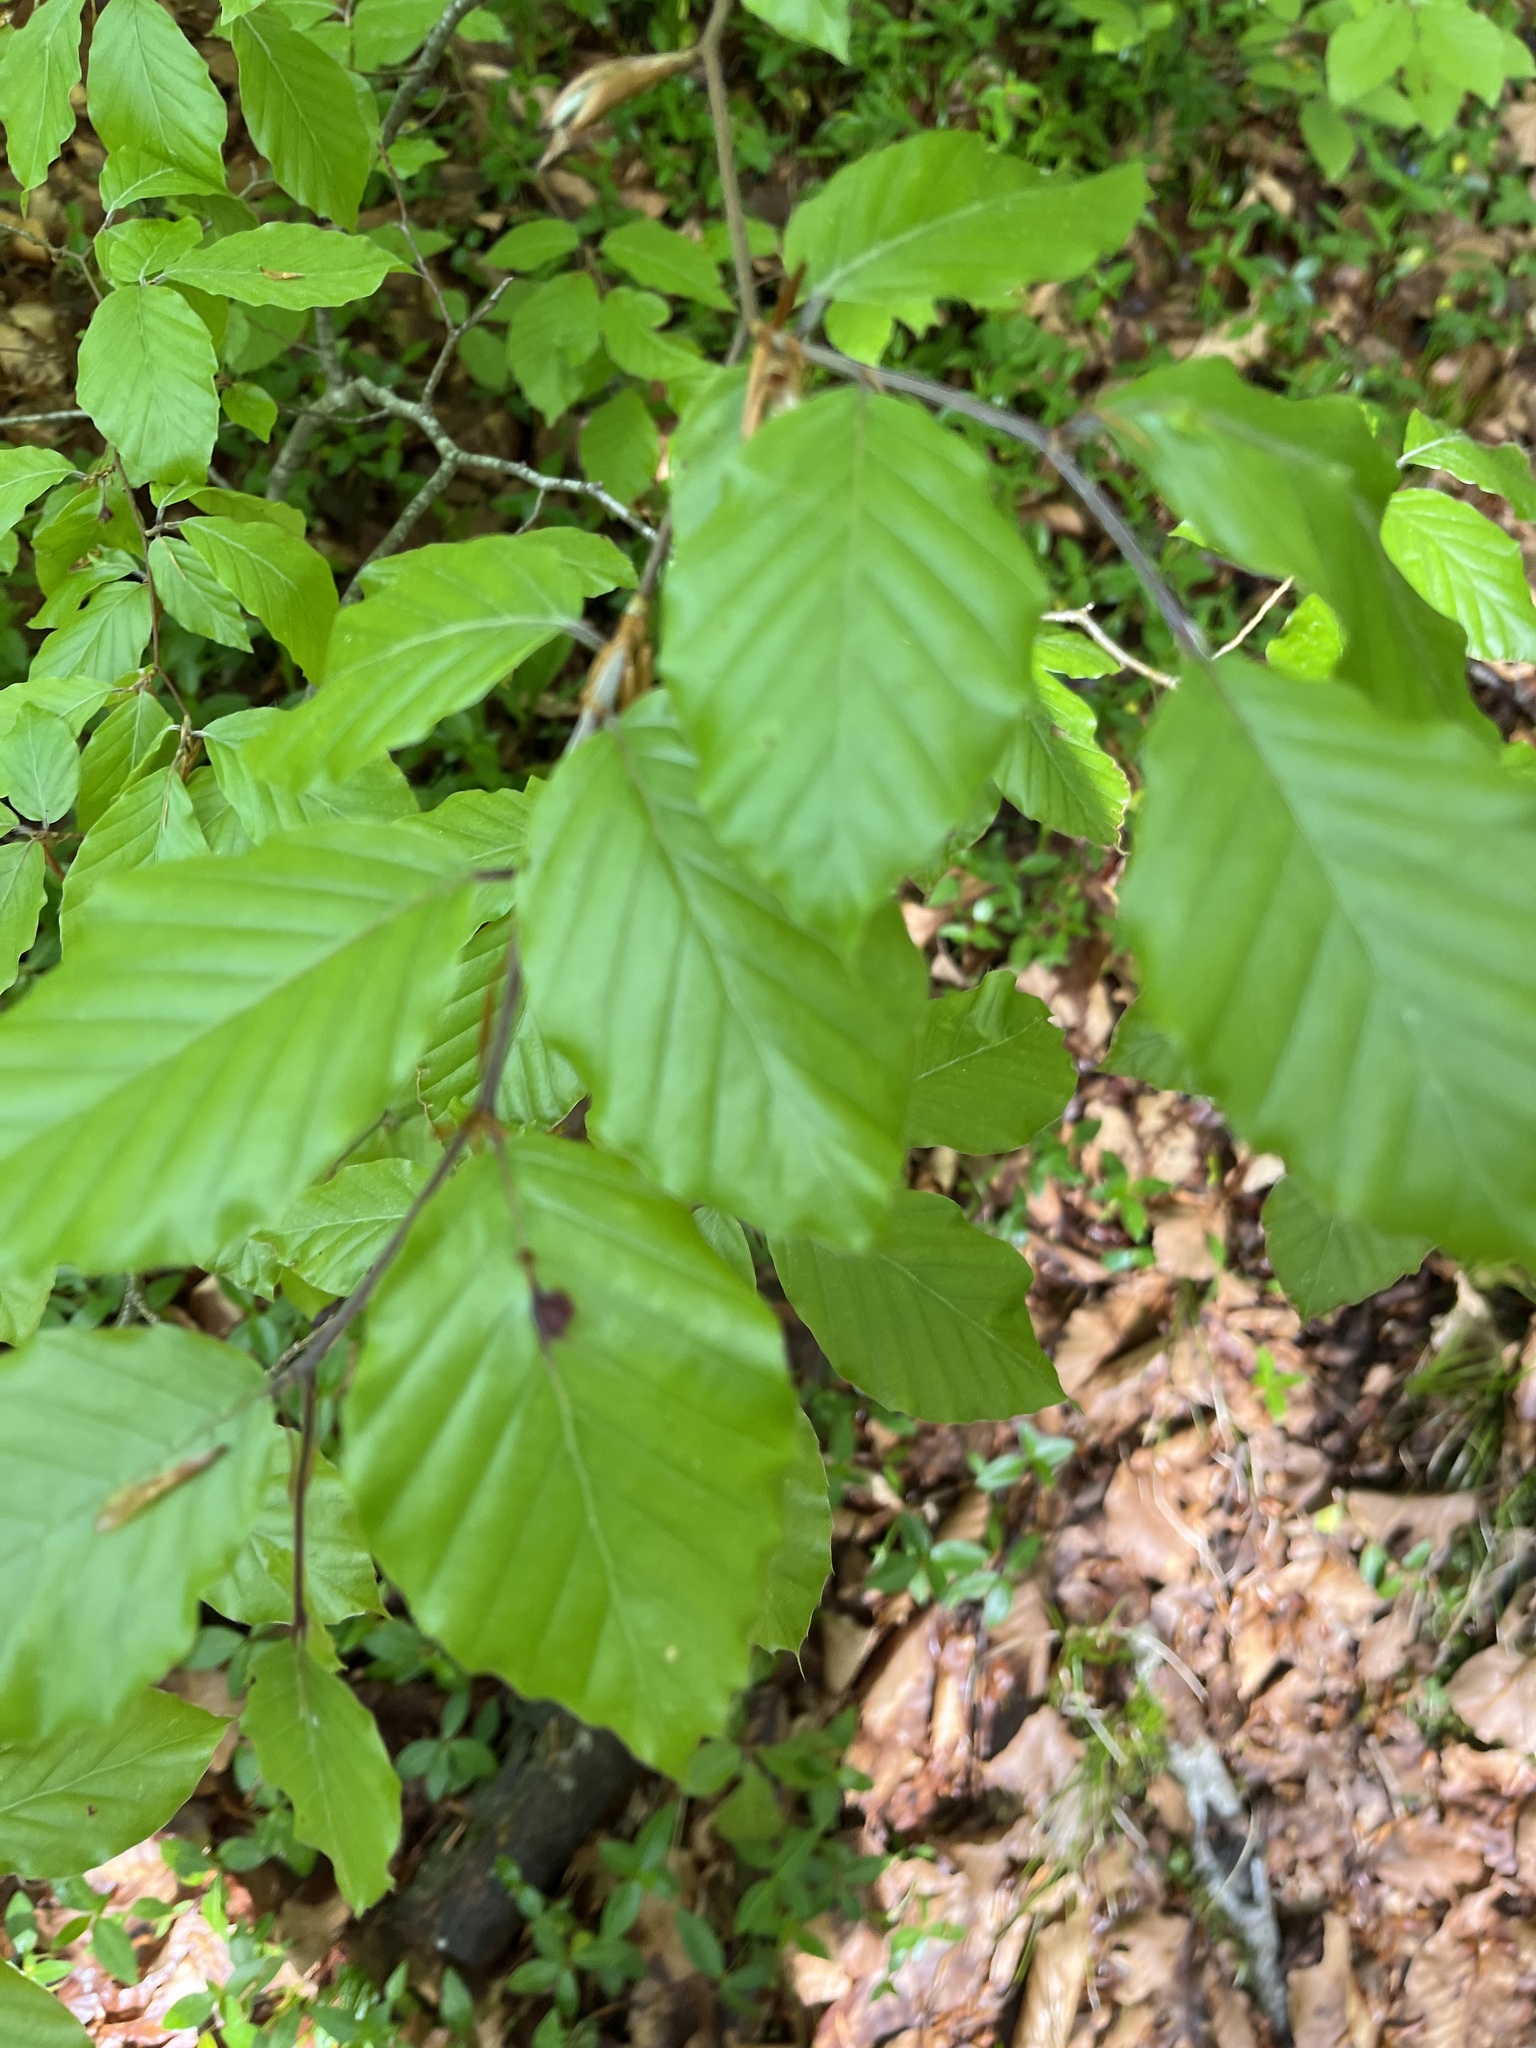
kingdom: Plantae
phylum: Tracheophyta
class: Magnoliopsida
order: Fagales
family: Fagaceae
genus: Fagus
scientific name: Fagus sylvatica
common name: Beech
